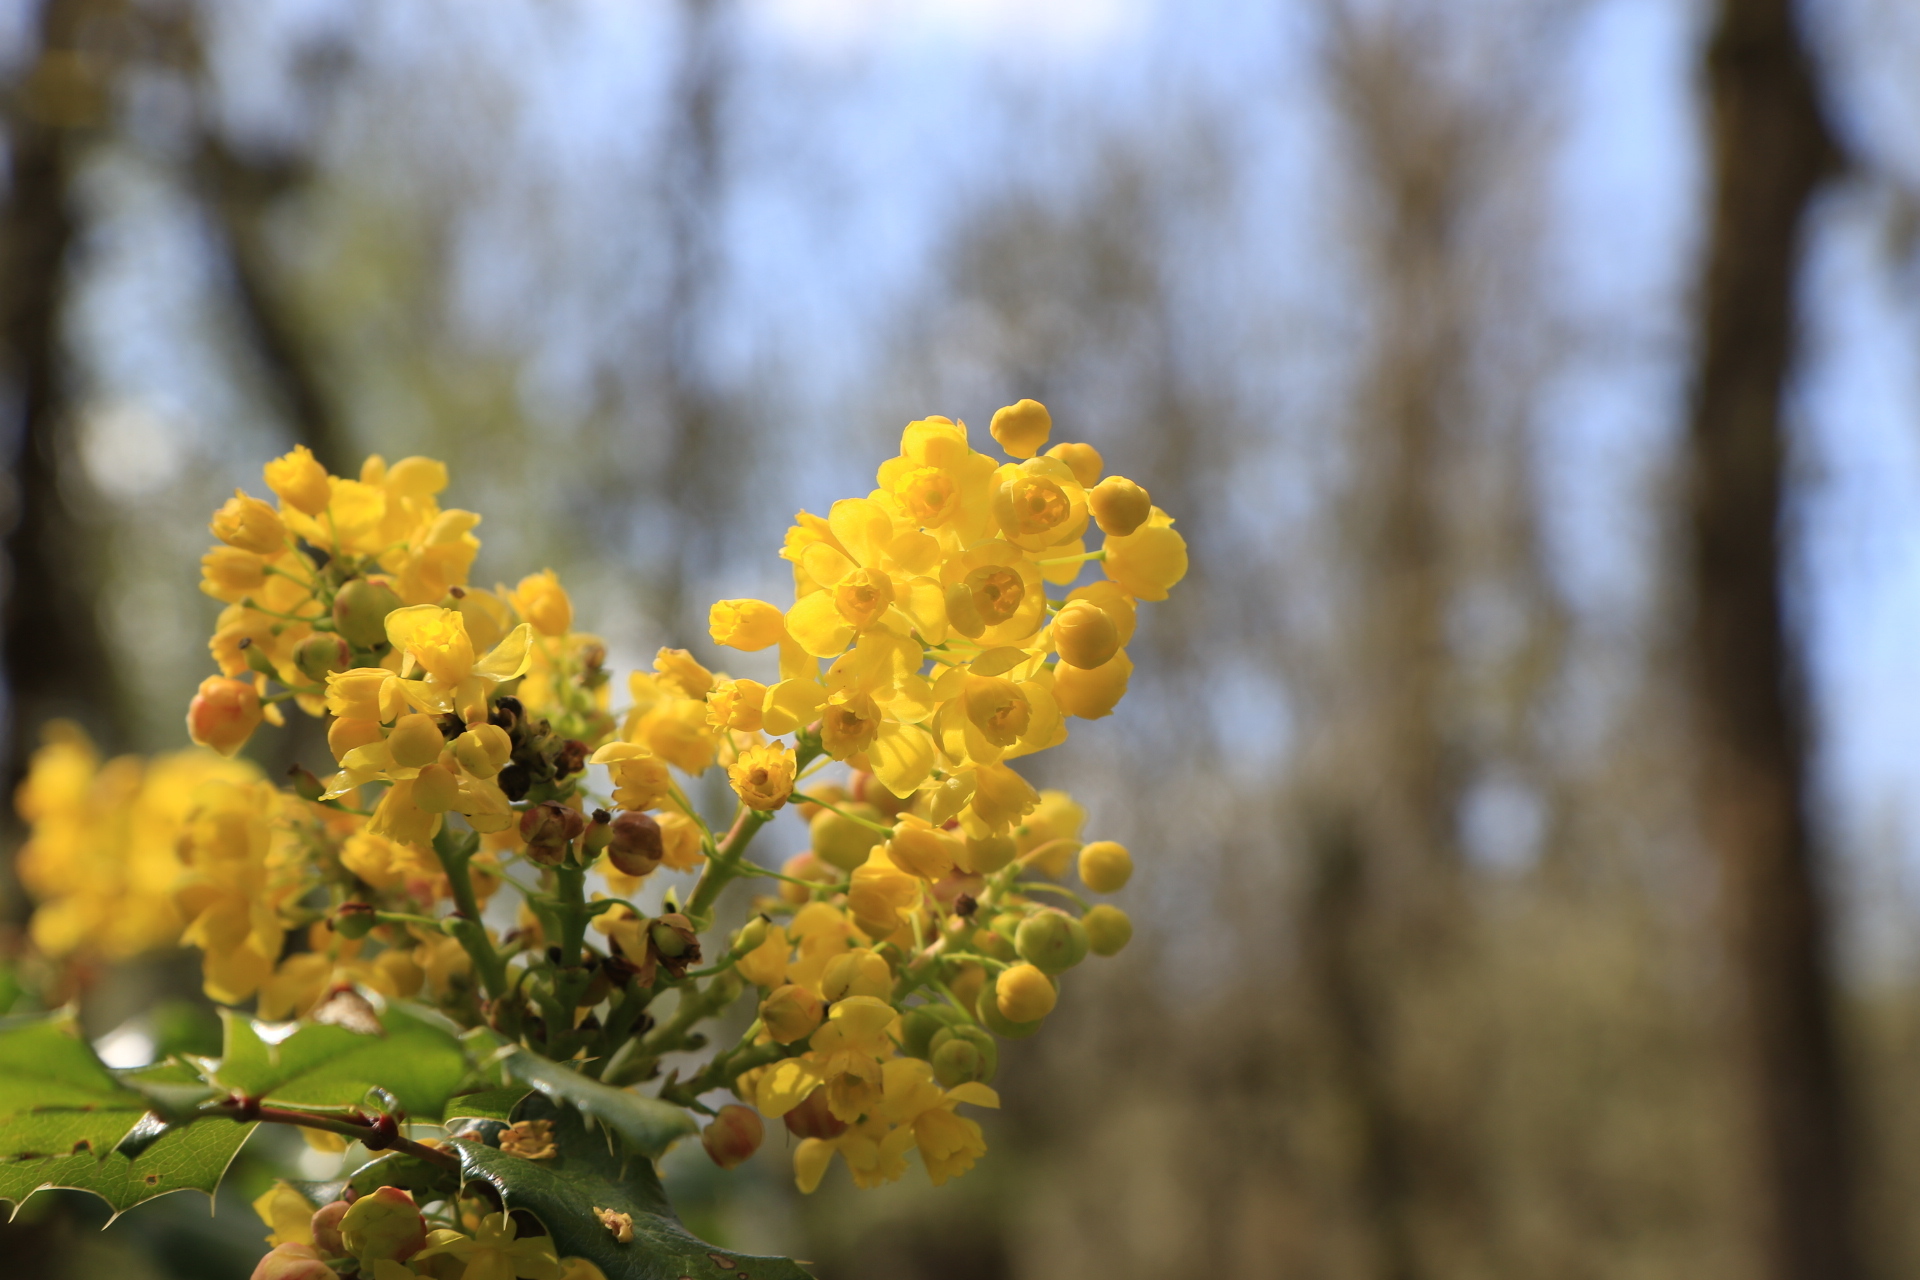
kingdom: Plantae
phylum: Tracheophyta
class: Magnoliopsida
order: Ranunculales
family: Berberidaceae
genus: Mahonia
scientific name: Mahonia aquifolium
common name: Oregon-grape
